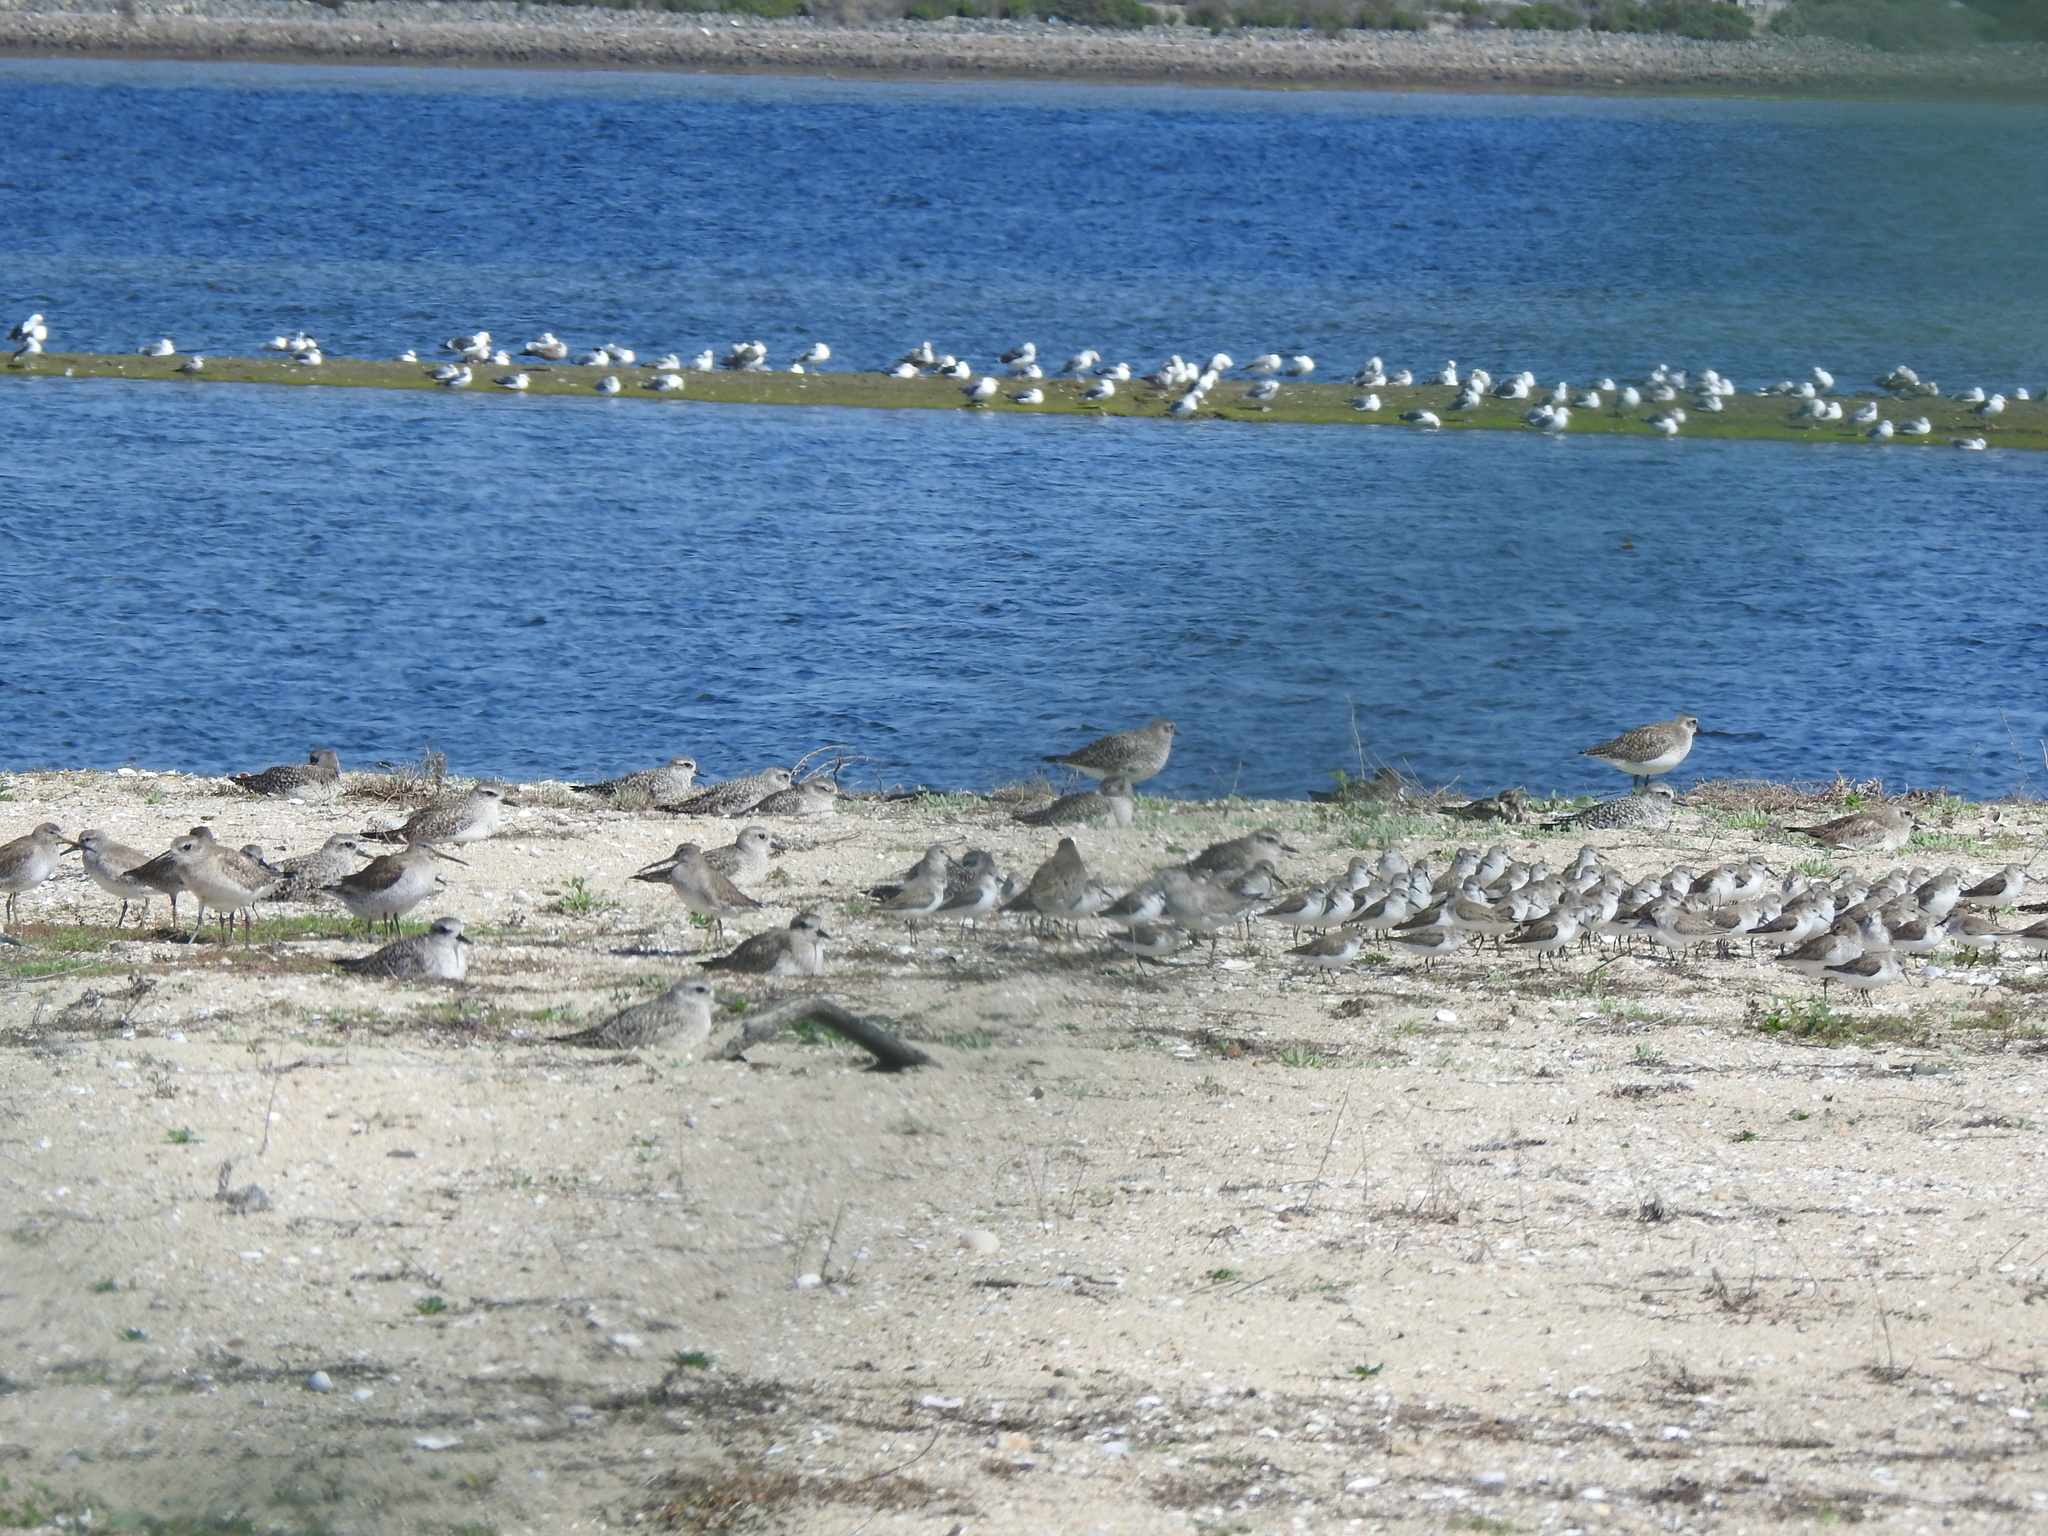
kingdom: Animalia
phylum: Chordata
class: Aves
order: Charadriiformes
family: Charadriidae
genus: Pluvialis
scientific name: Pluvialis squatarola
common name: Grey plover
